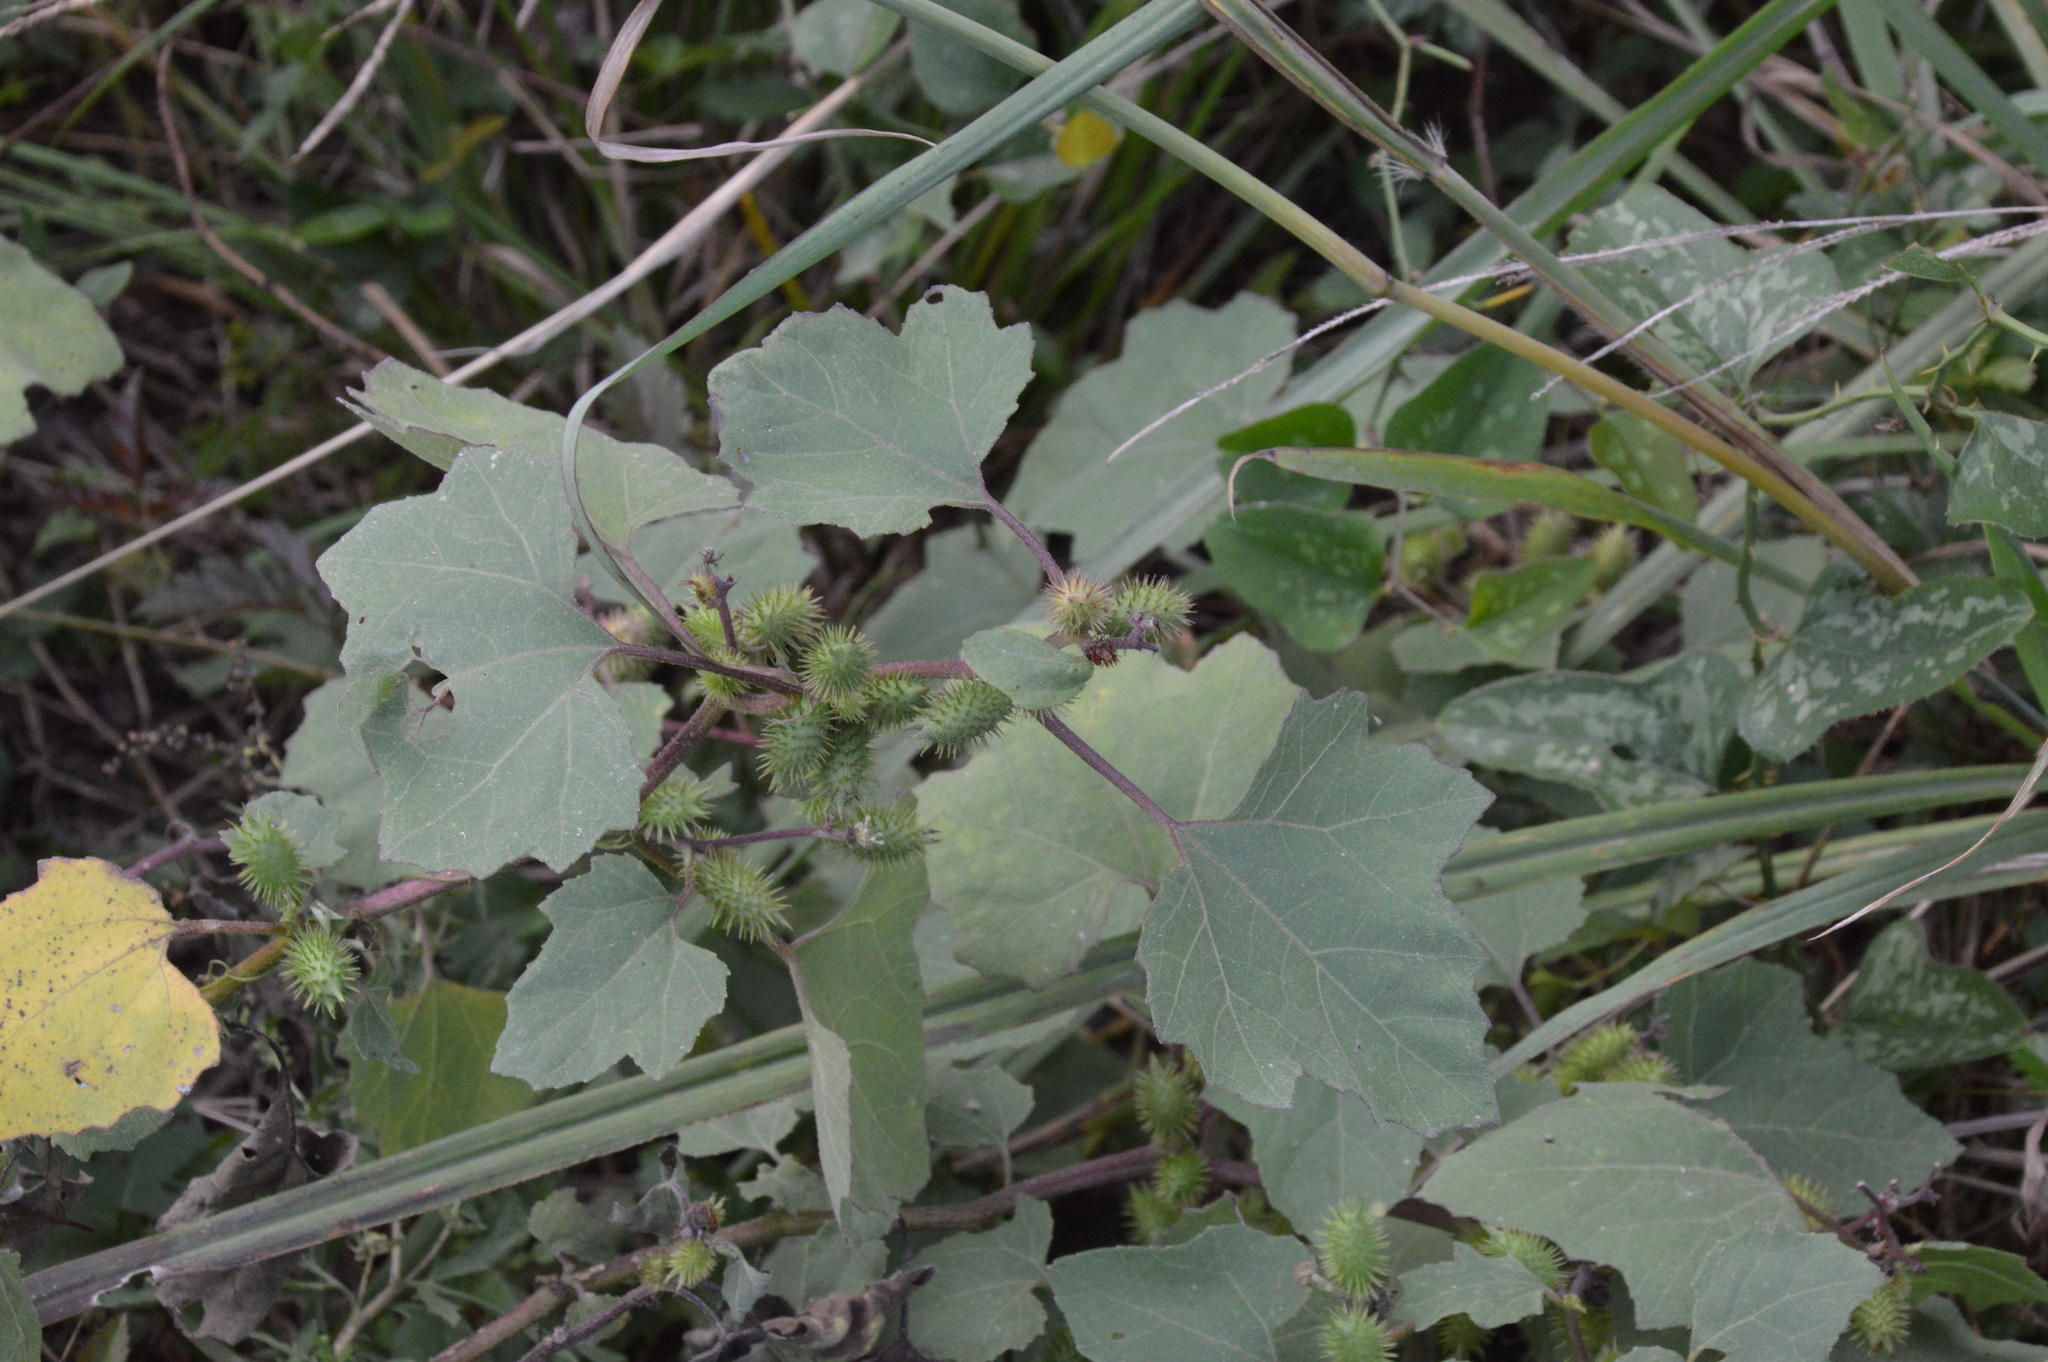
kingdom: Plantae
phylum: Tracheophyta
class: Magnoliopsida
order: Asterales
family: Asteraceae
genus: Xanthium
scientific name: Xanthium strumarium
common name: Rough cocklebur
